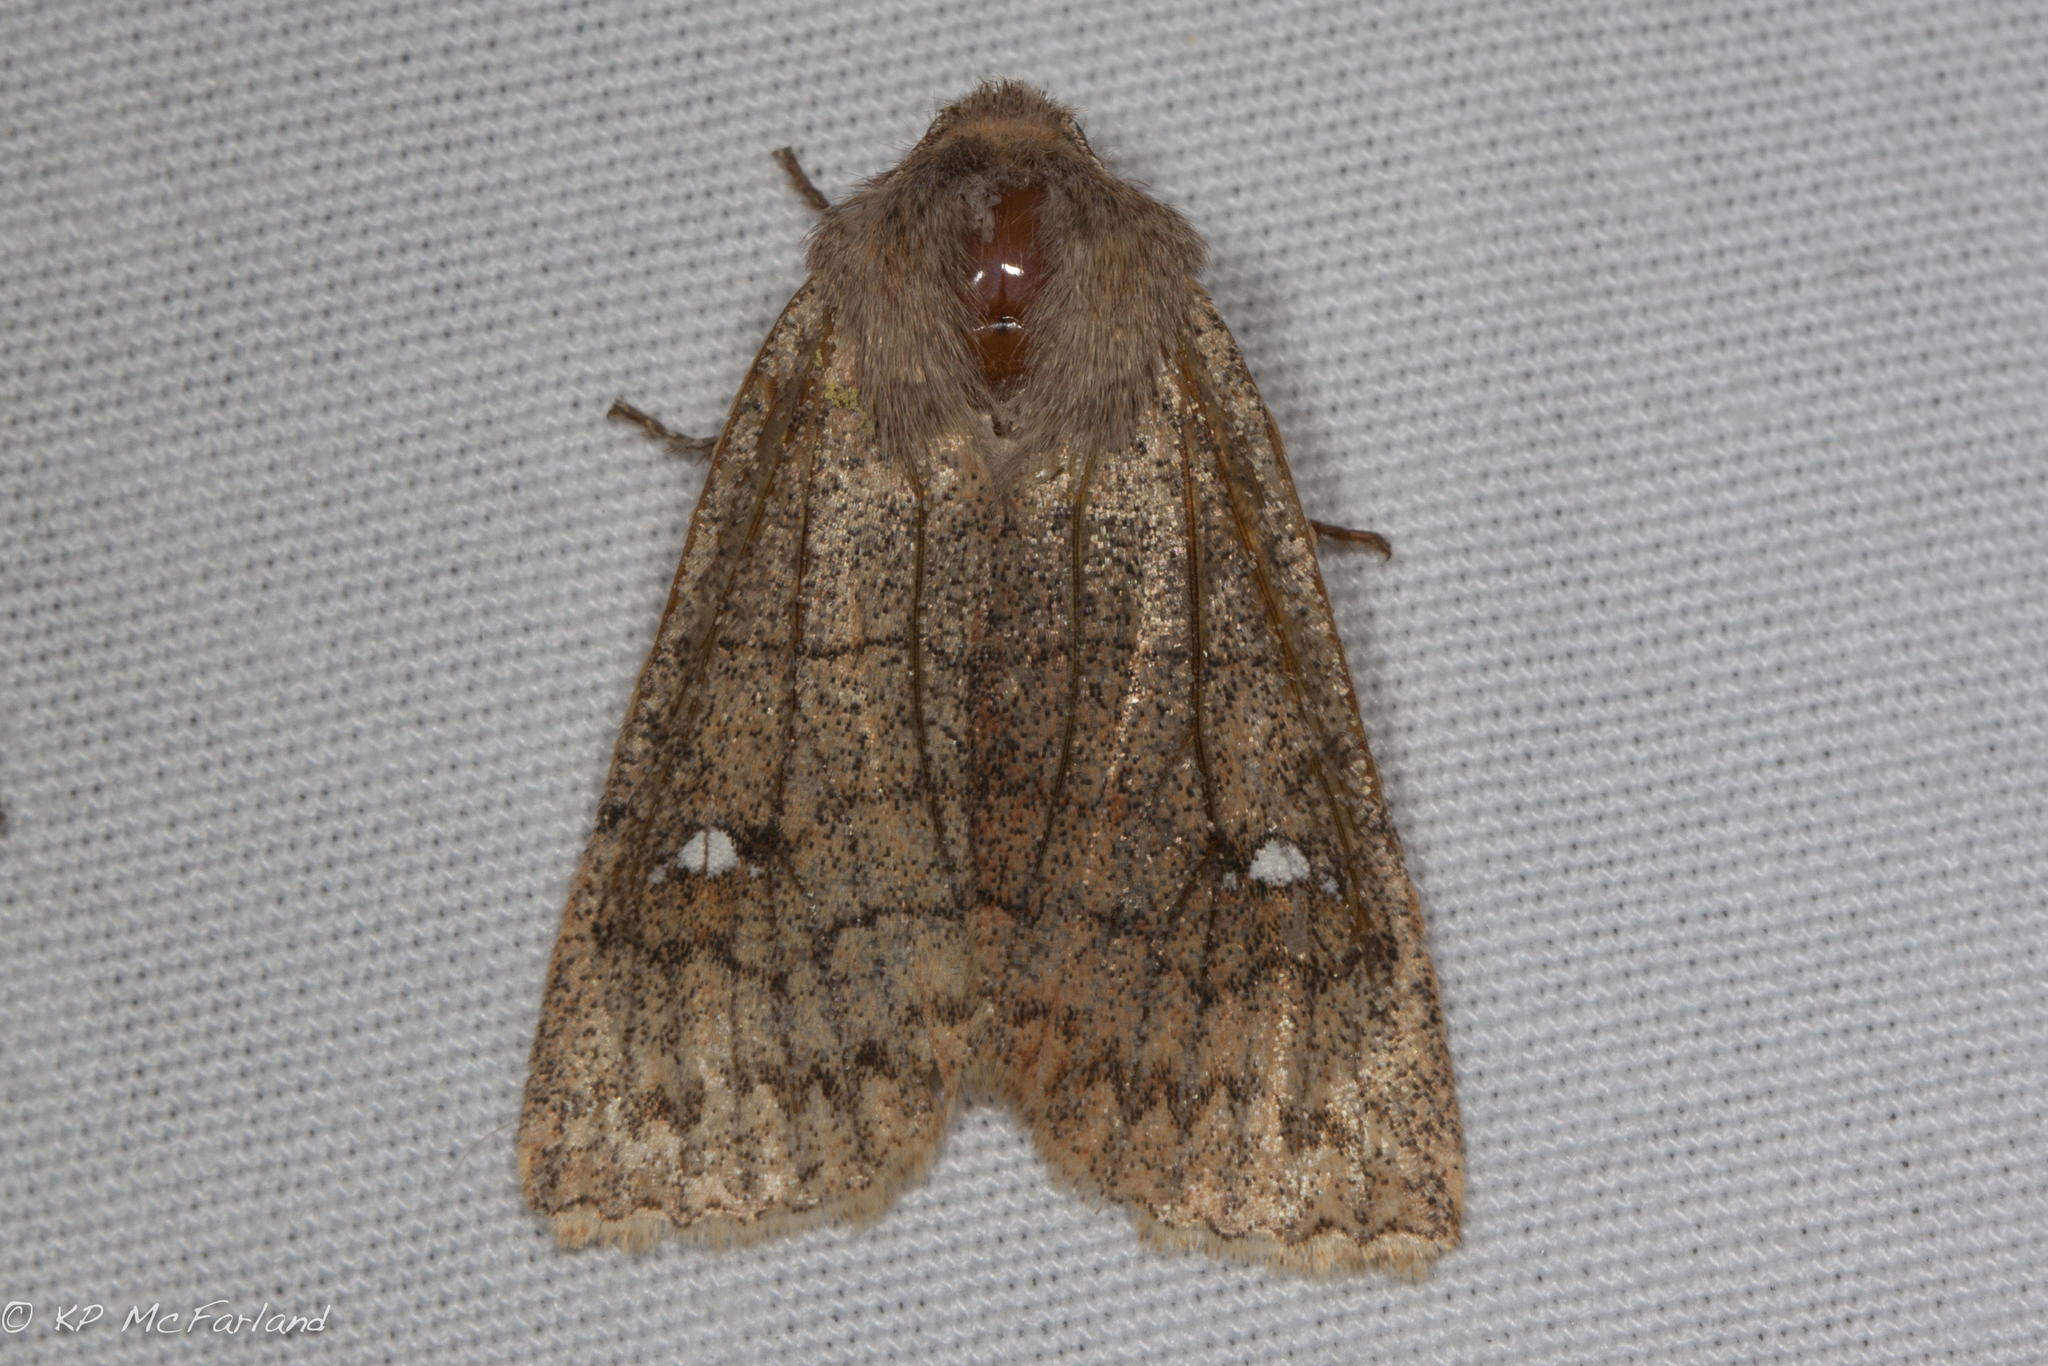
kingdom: Animalia
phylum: Arthropoda
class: Insecta
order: Lepidoptera
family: Noctuidae
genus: Eupsilia
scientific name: Eupsilia vinulenta
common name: Straight-toothed sallow
